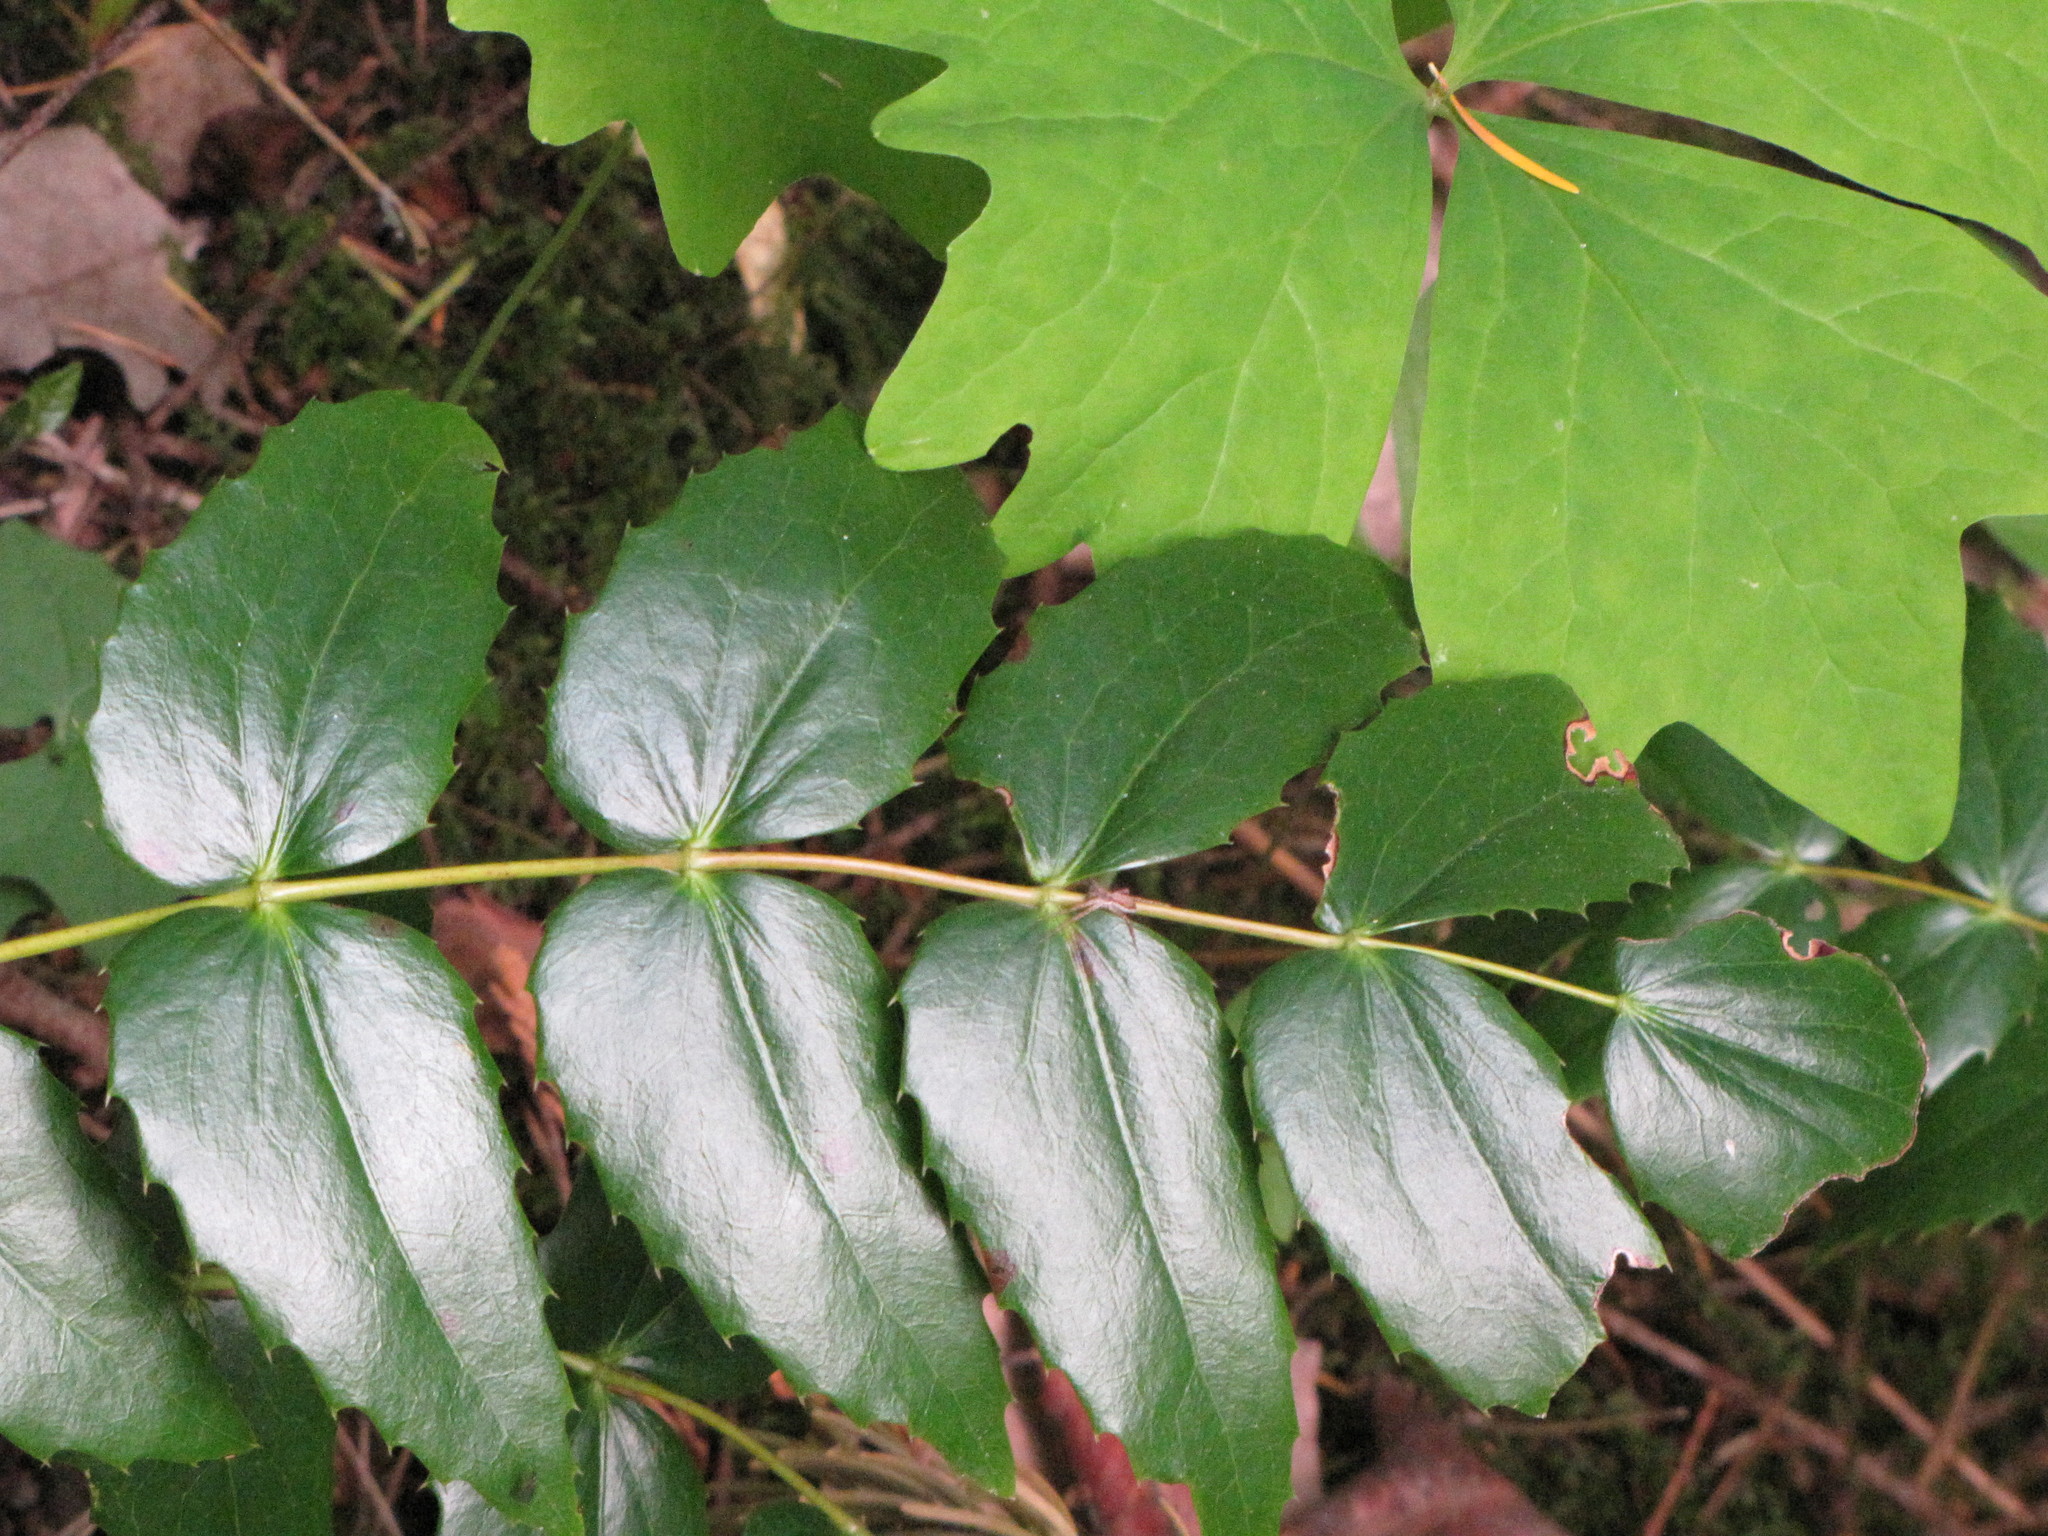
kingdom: Plantae
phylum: Tracheophyta
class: Magnoliopsida
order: Ranunculales
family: Berberidaceae
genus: Mahonia
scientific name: Mahonia nervosa
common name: Cascade oregon-grape
